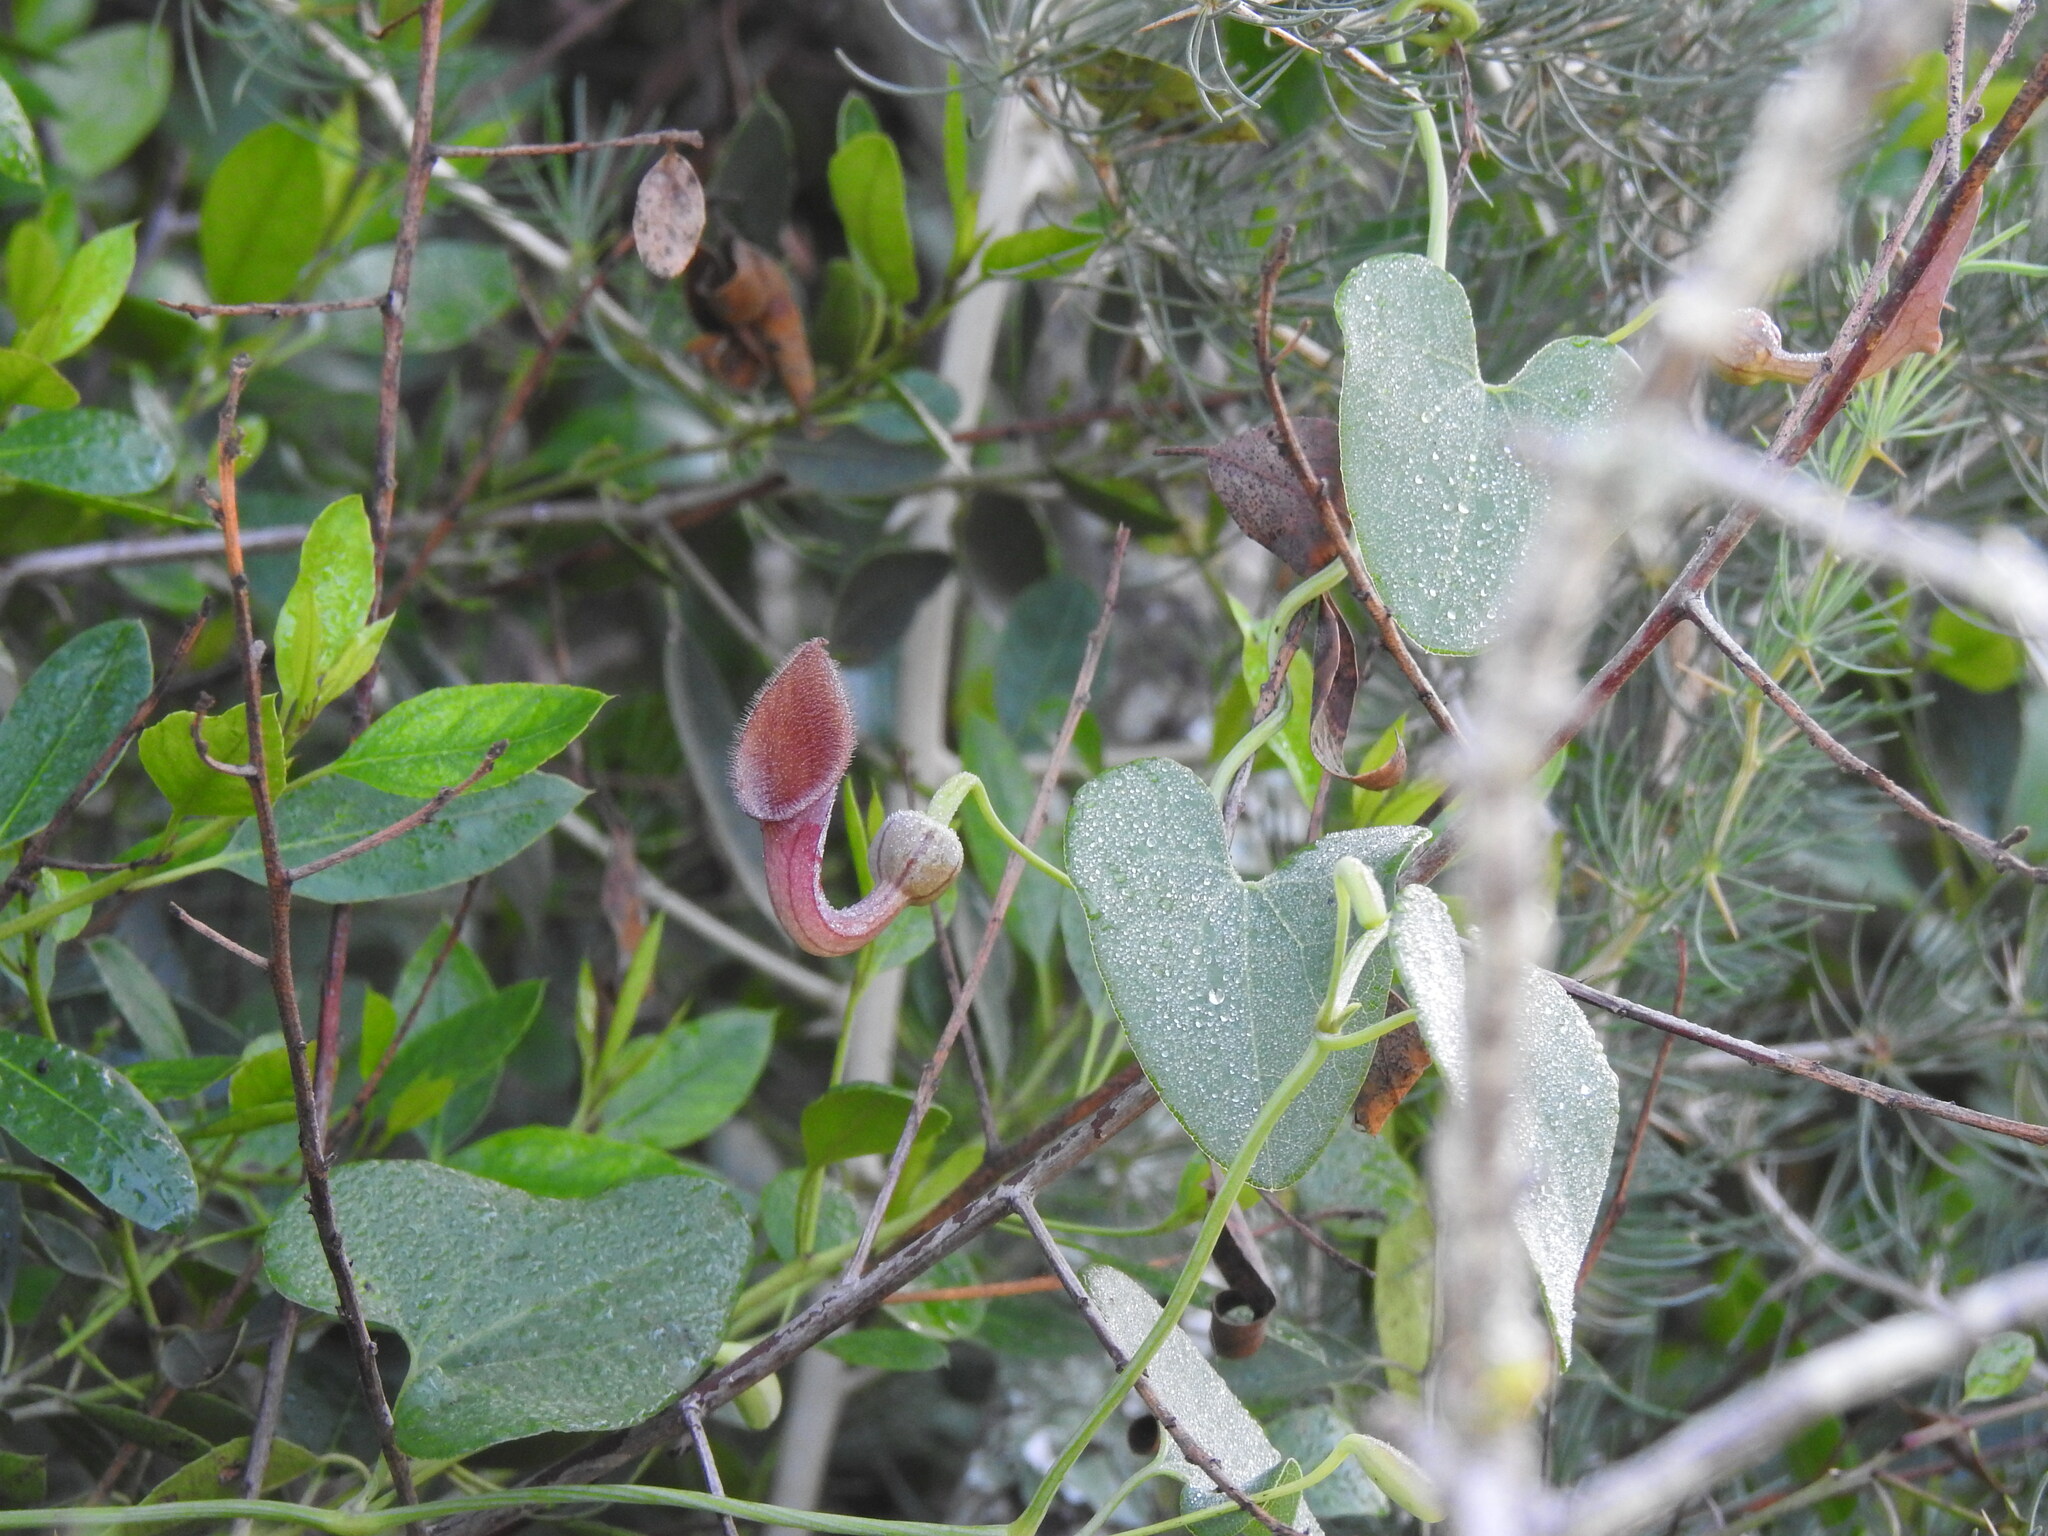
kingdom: Plantae
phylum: Tracheophyta
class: Magnoliopsida
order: Piperales
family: Aristolochiaceae
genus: Aristolochia
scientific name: Aristolochia baetica
